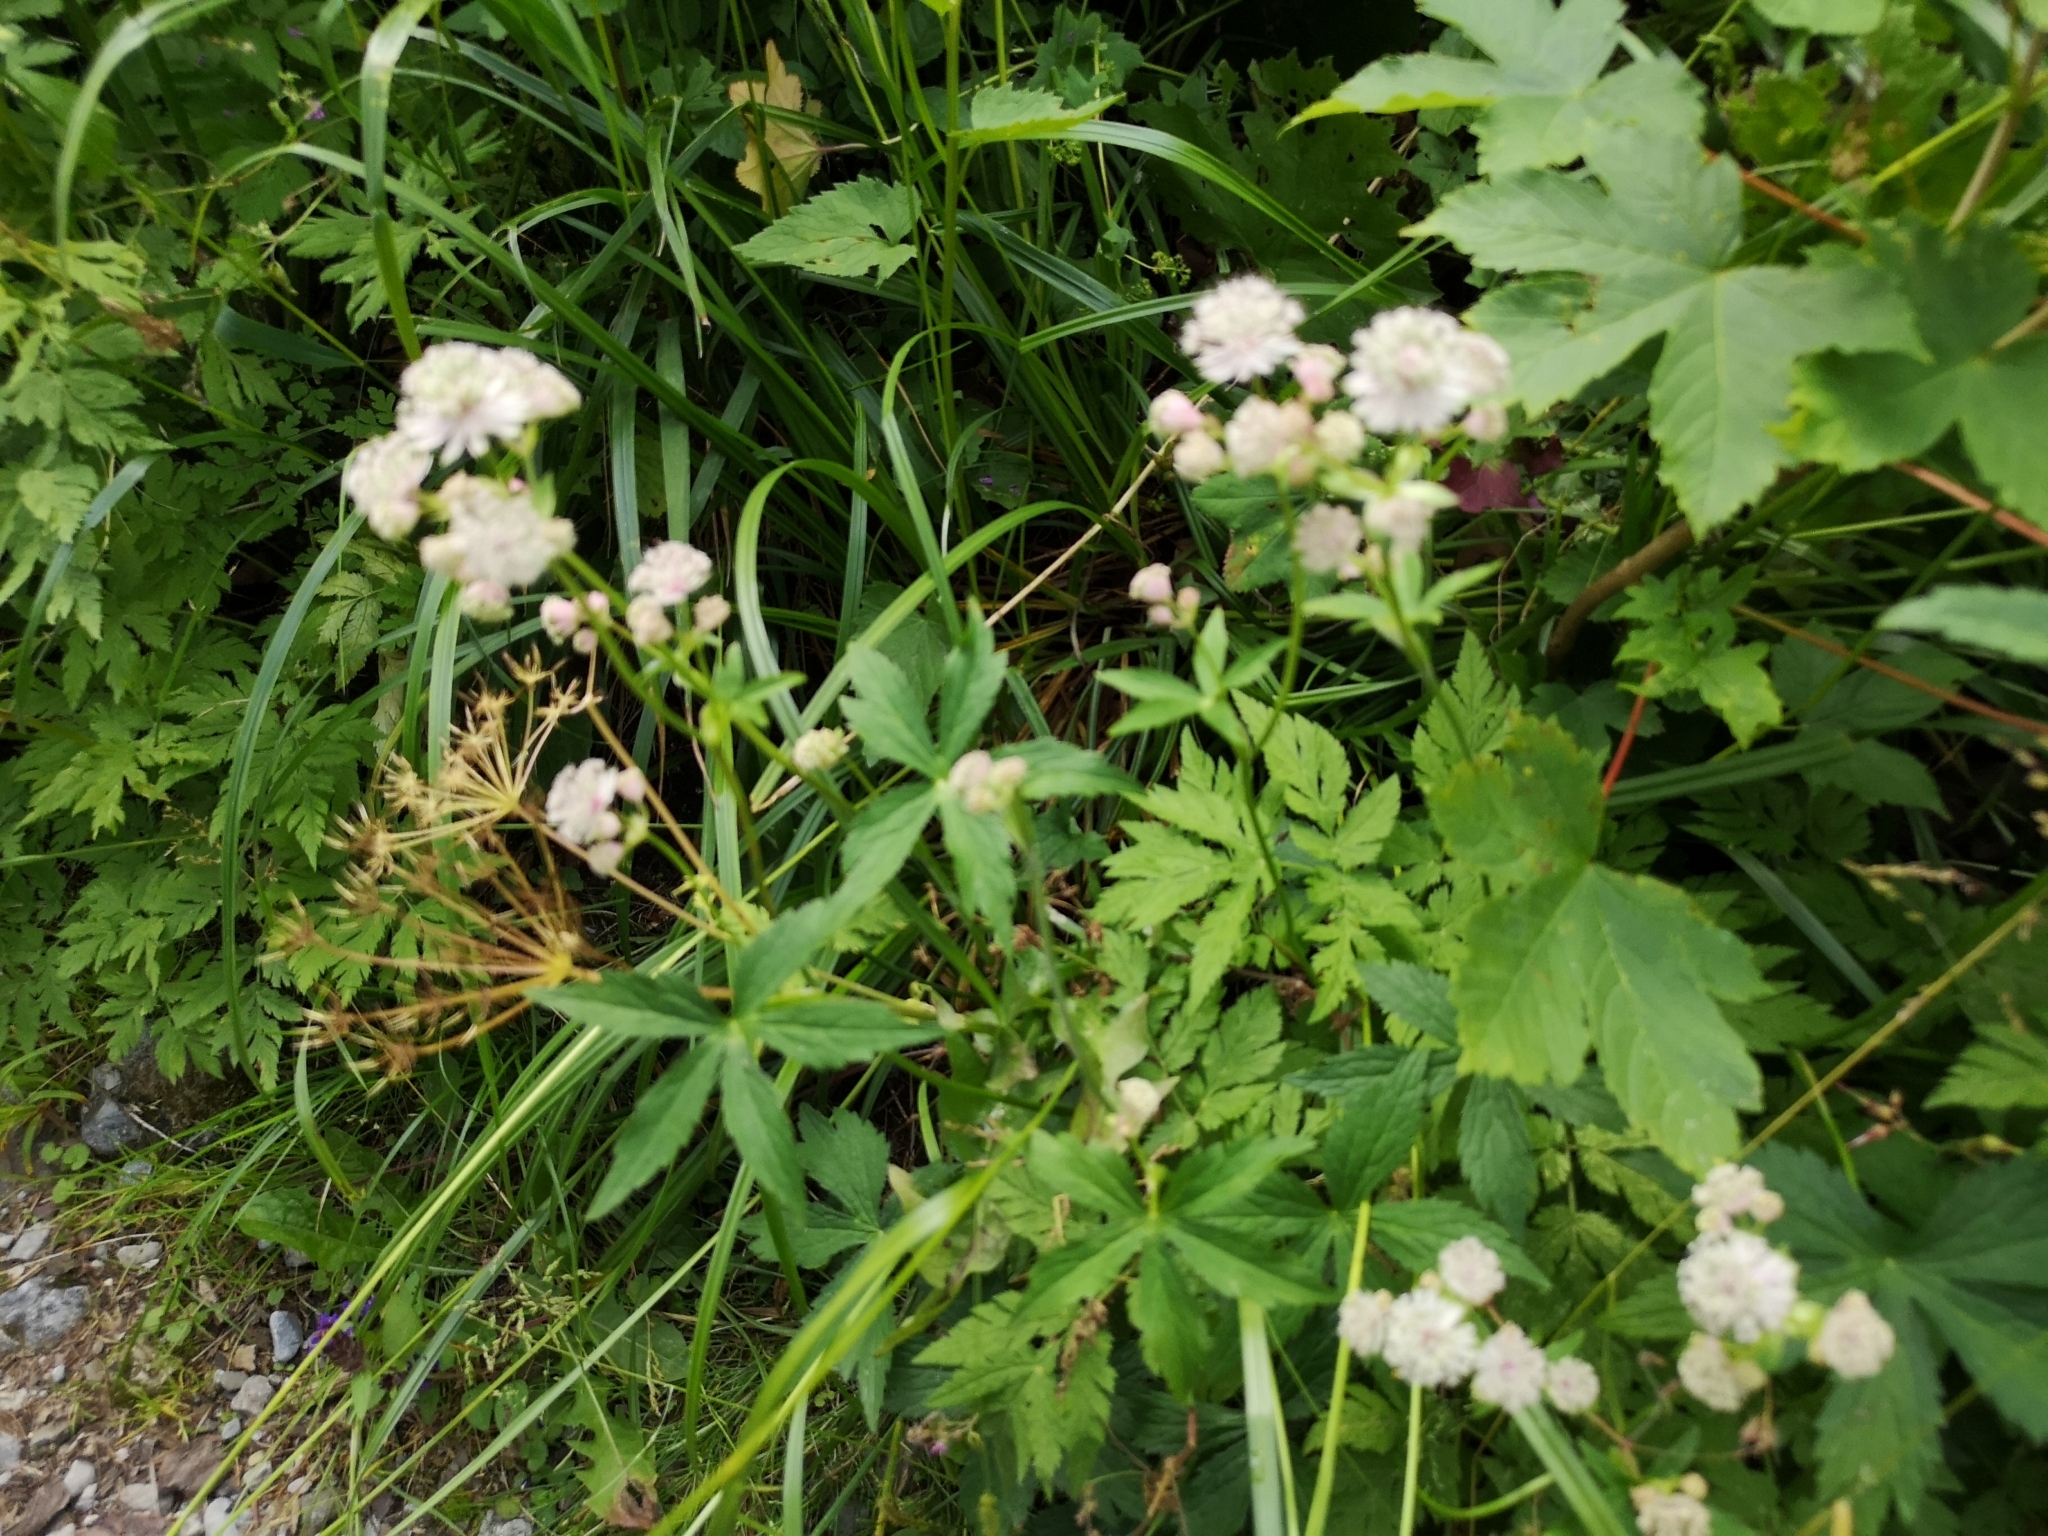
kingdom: Plantae
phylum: Tracheophyta
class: Magnoliopsida
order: Apiales
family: Apiaceae
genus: Astrantia
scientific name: Astrantia major
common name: Greater masterwort
